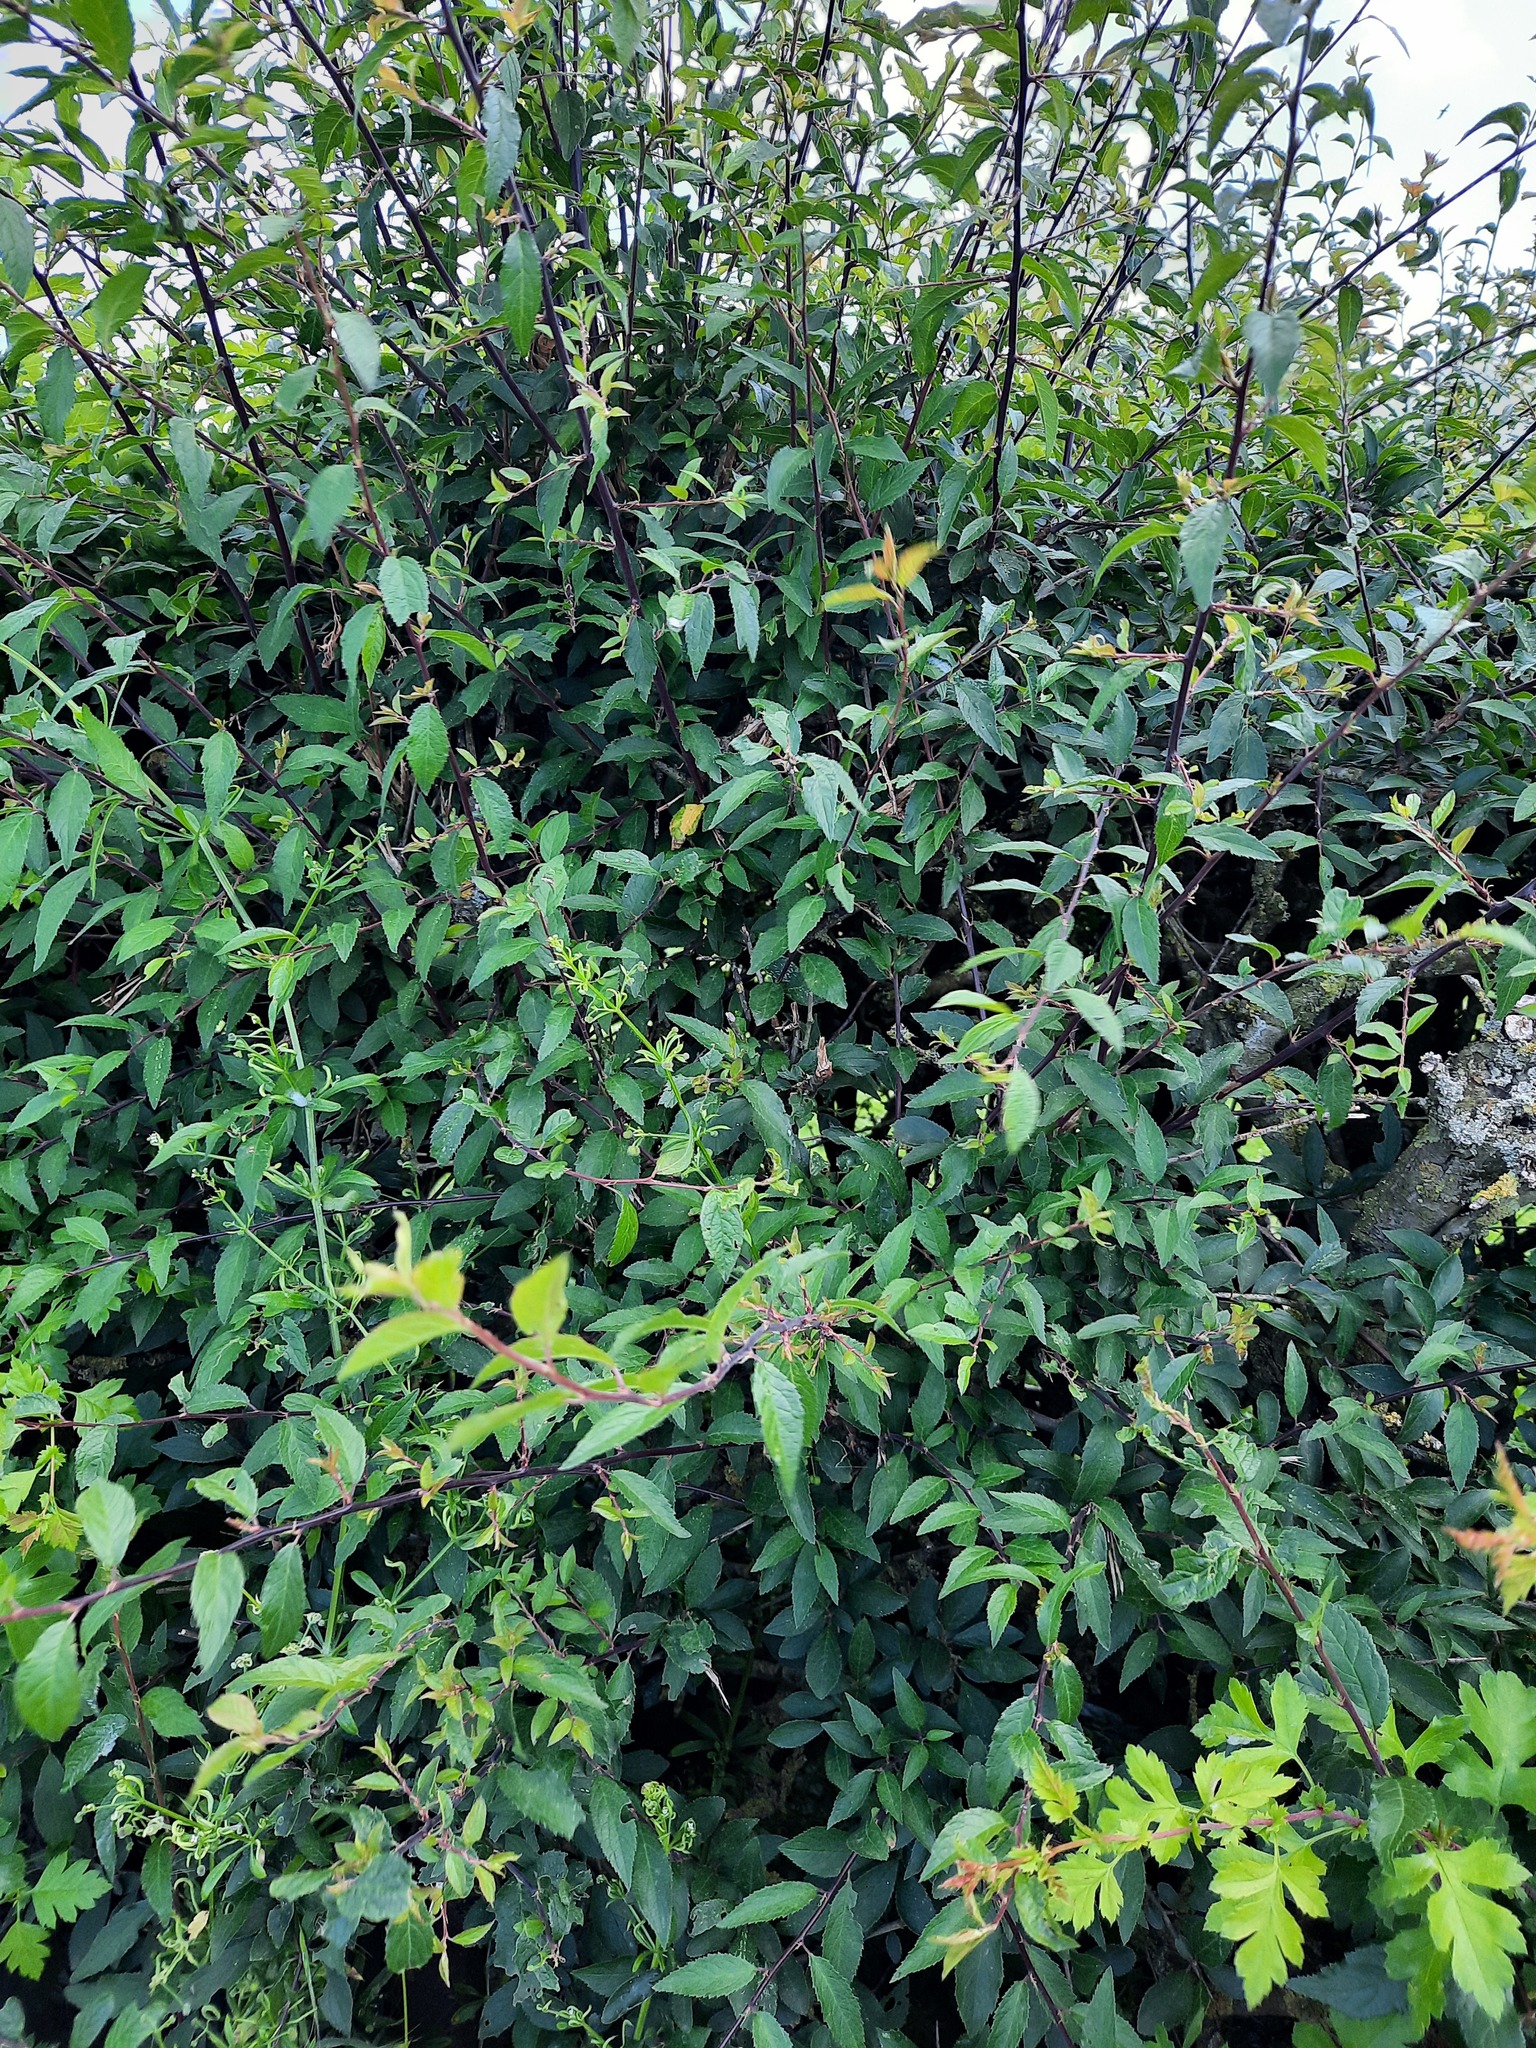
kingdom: Plantae
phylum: Tracheophyta
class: Magnoliopsida
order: Rosales
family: Rosaceae
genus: Prunus
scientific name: Prunus spinosa
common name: Blackthorn
